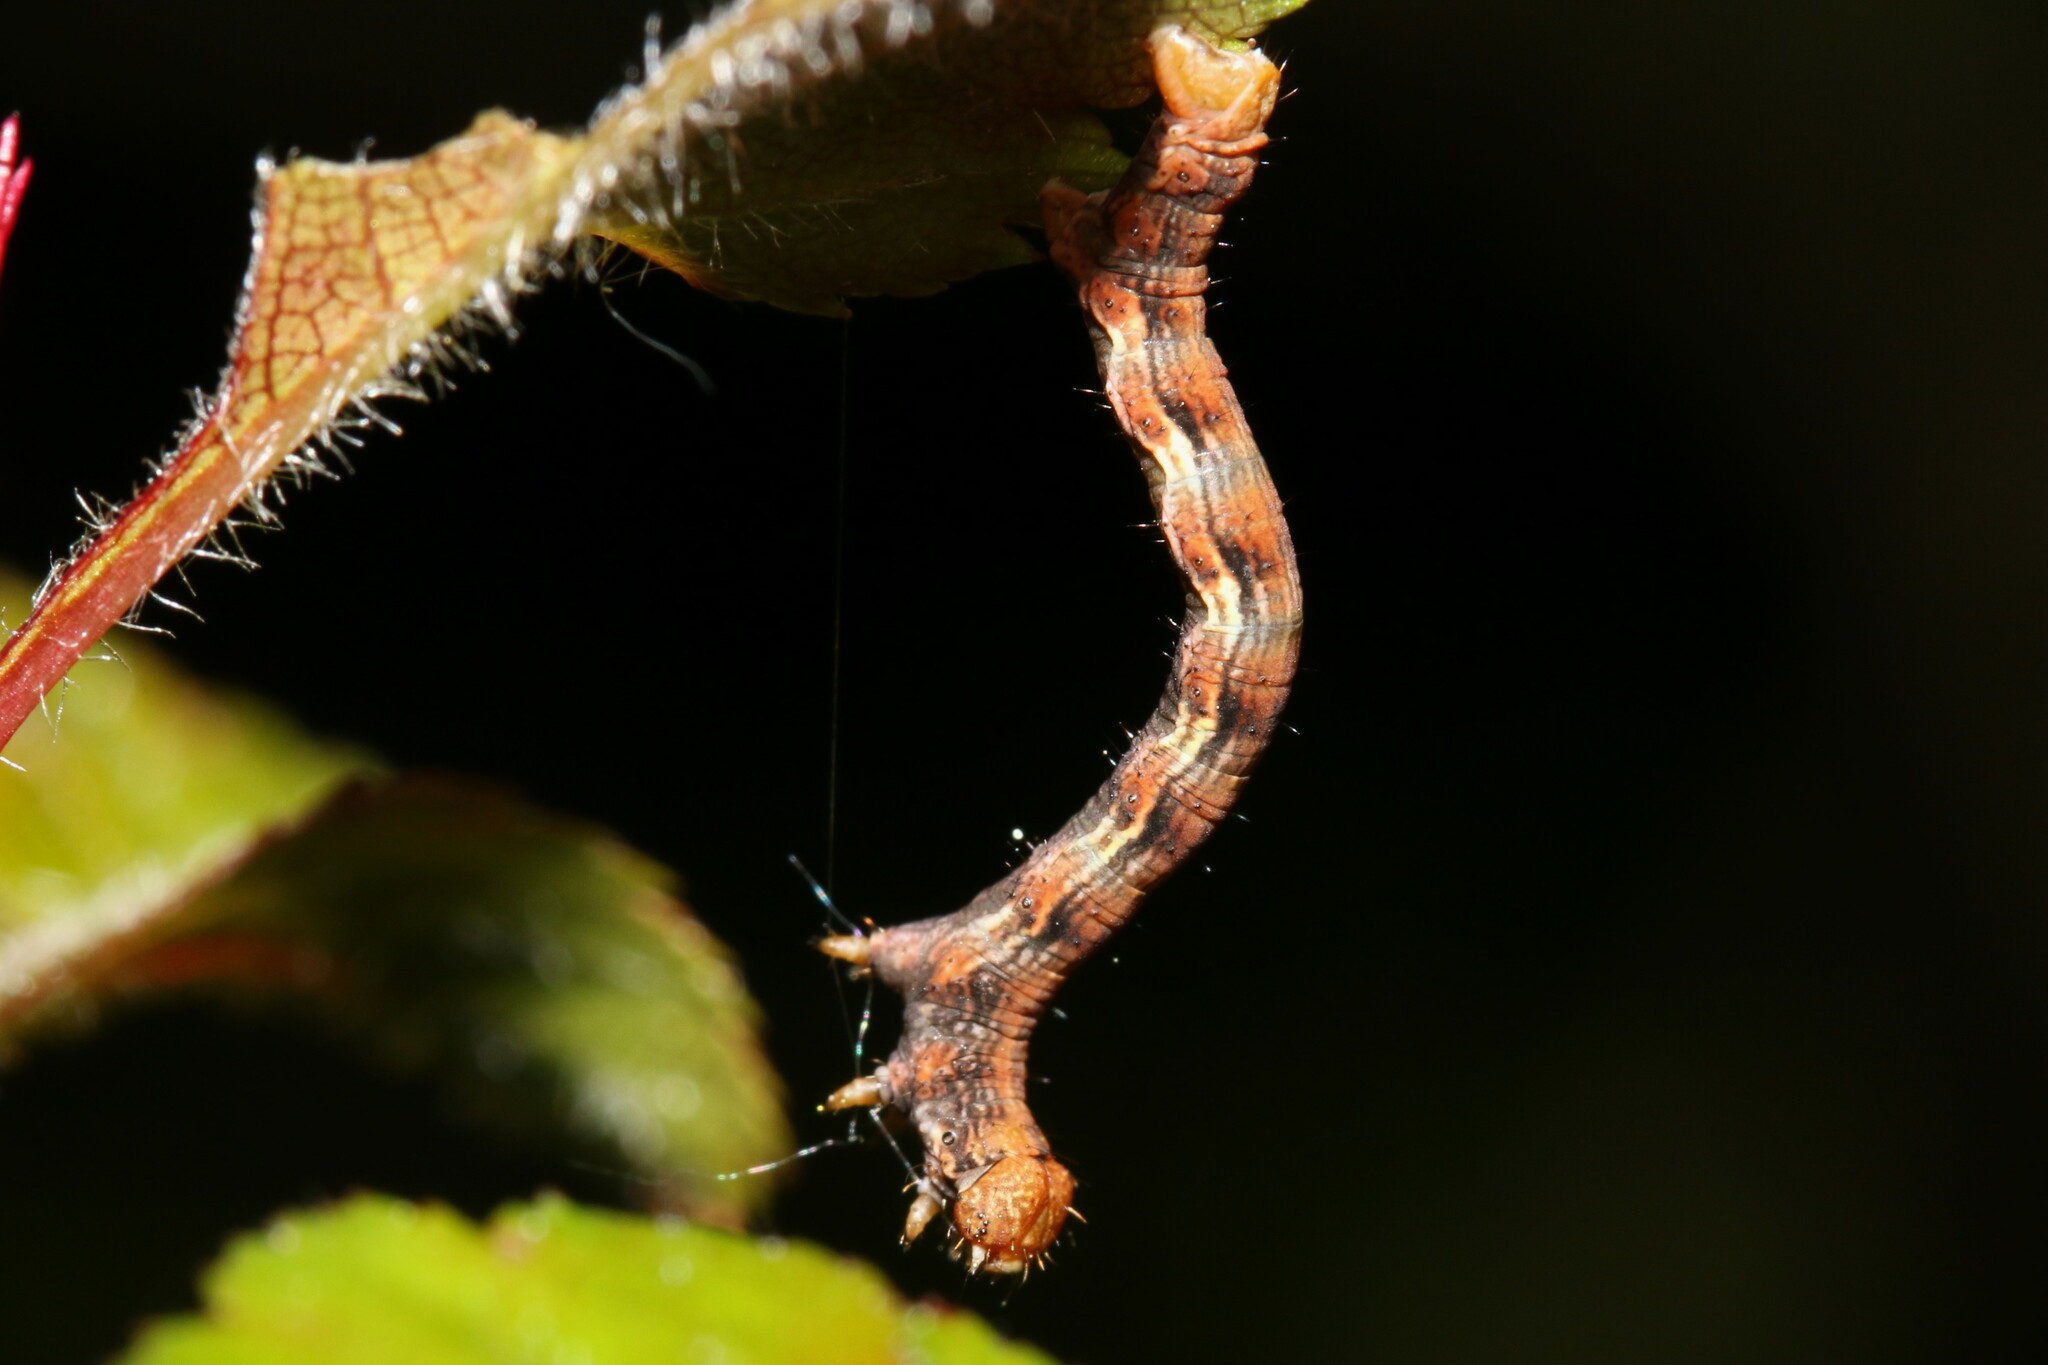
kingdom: Animalia
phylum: Arthropoda
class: Insecta
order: Lepidoptera
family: Geometridae
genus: Erannis
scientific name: Erannis defoliaria
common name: Mottled umber
